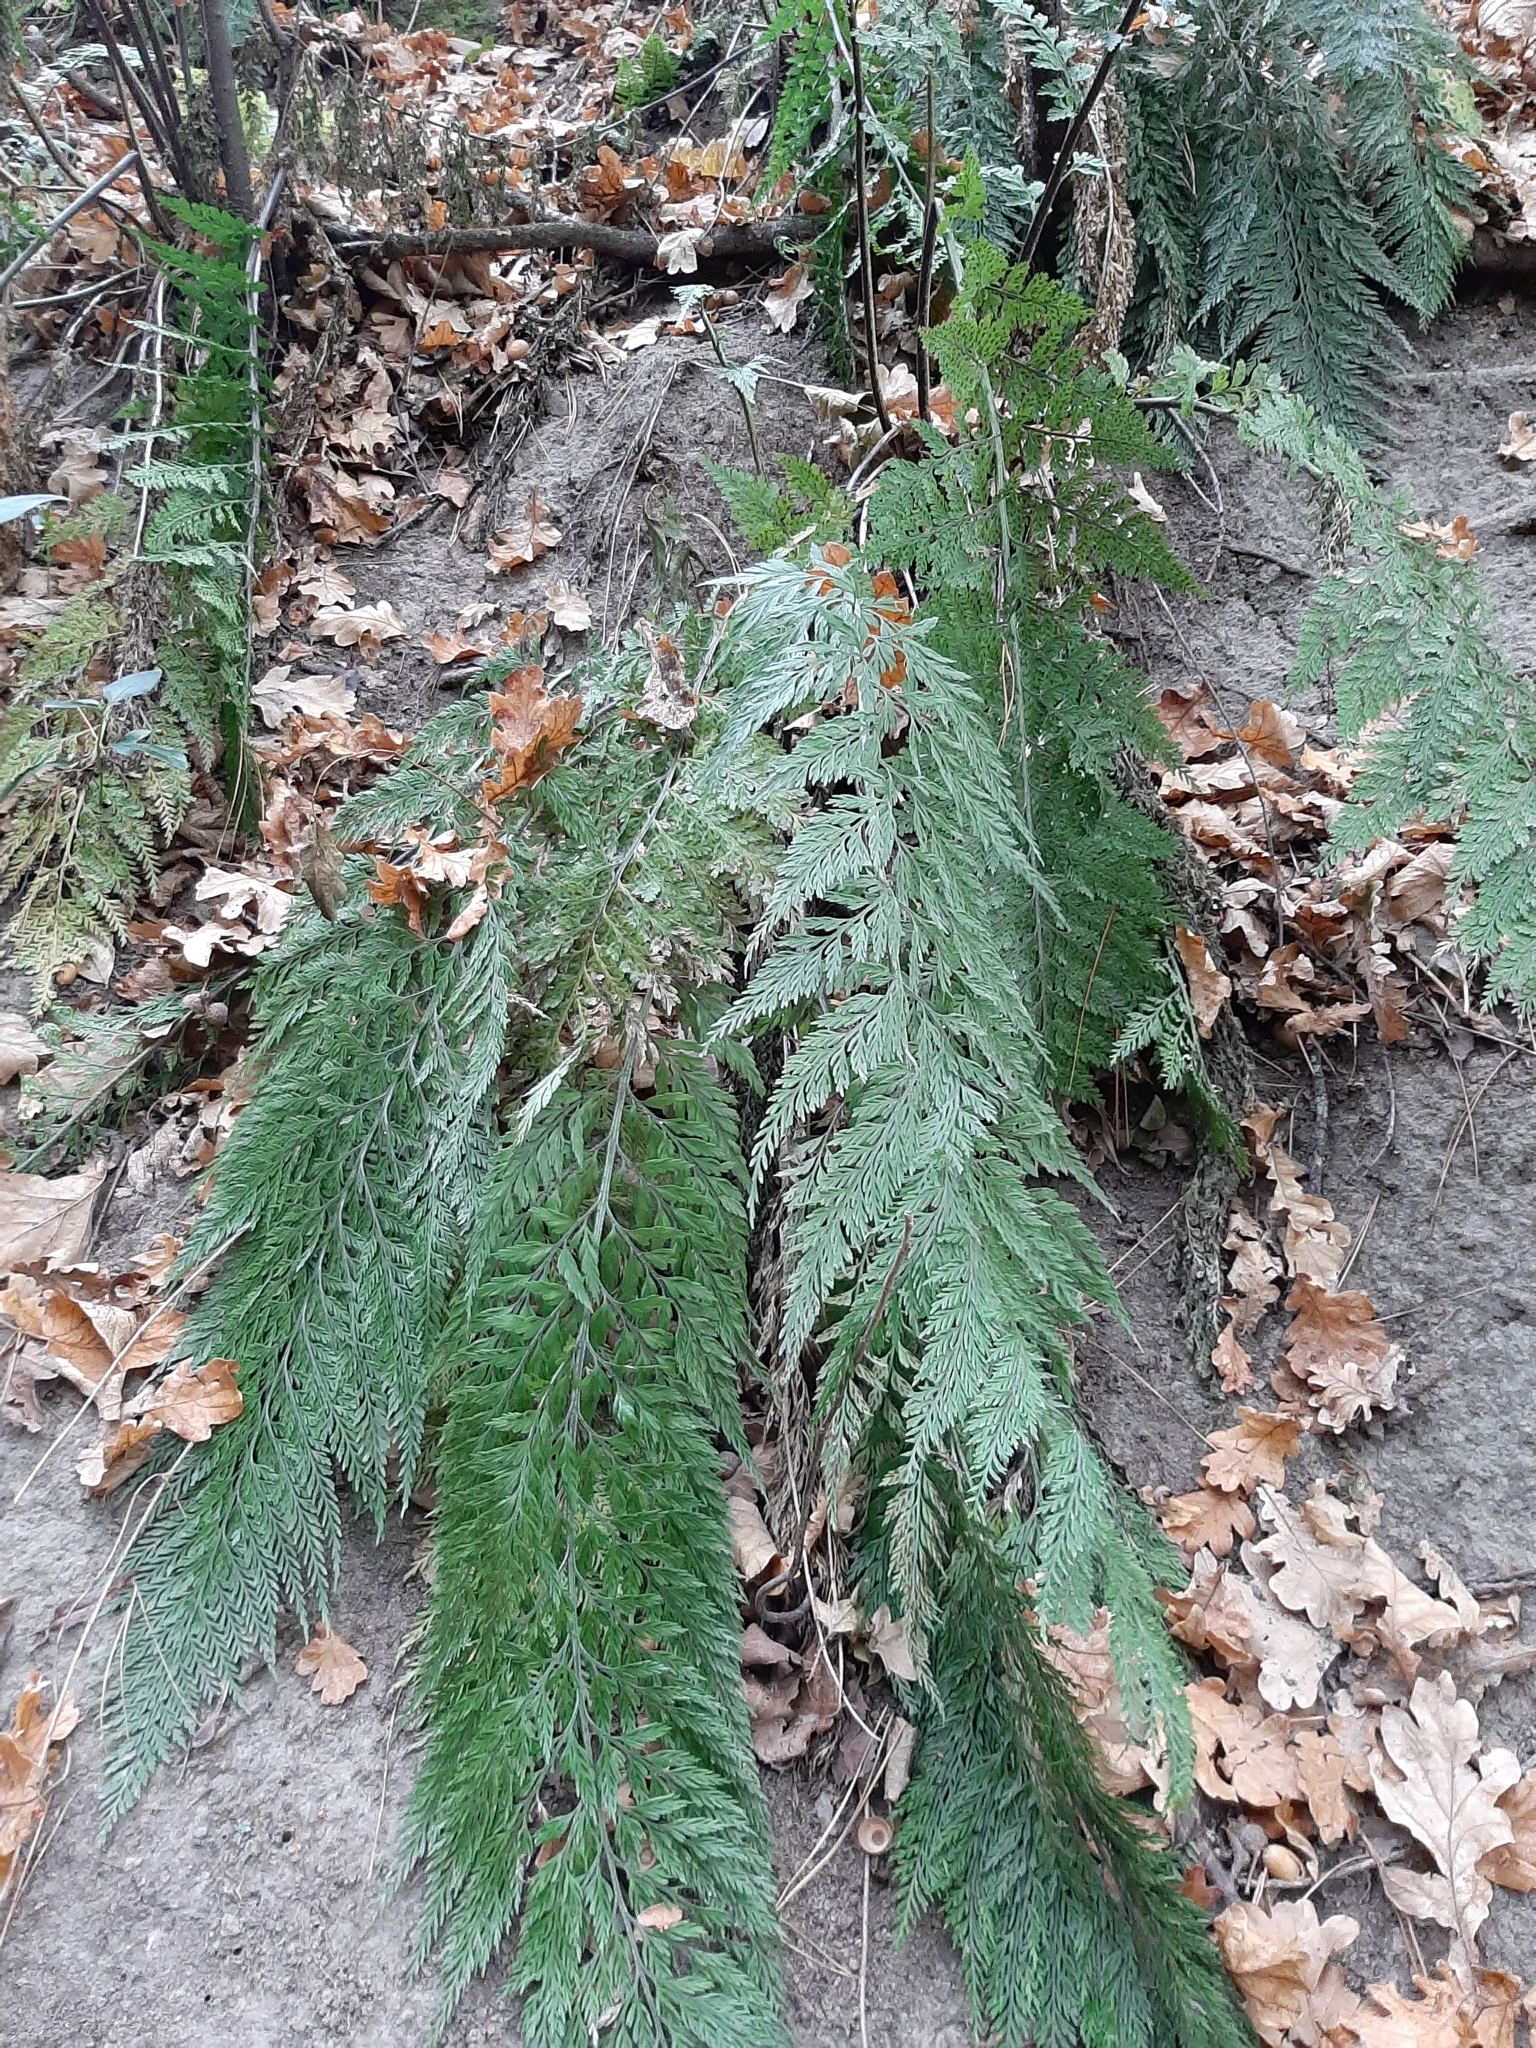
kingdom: Plantae
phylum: Tracheophyta
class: Polypodiopsida
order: Polypodiales
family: Aspleniaceae
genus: Asplenium
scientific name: Asplenium
